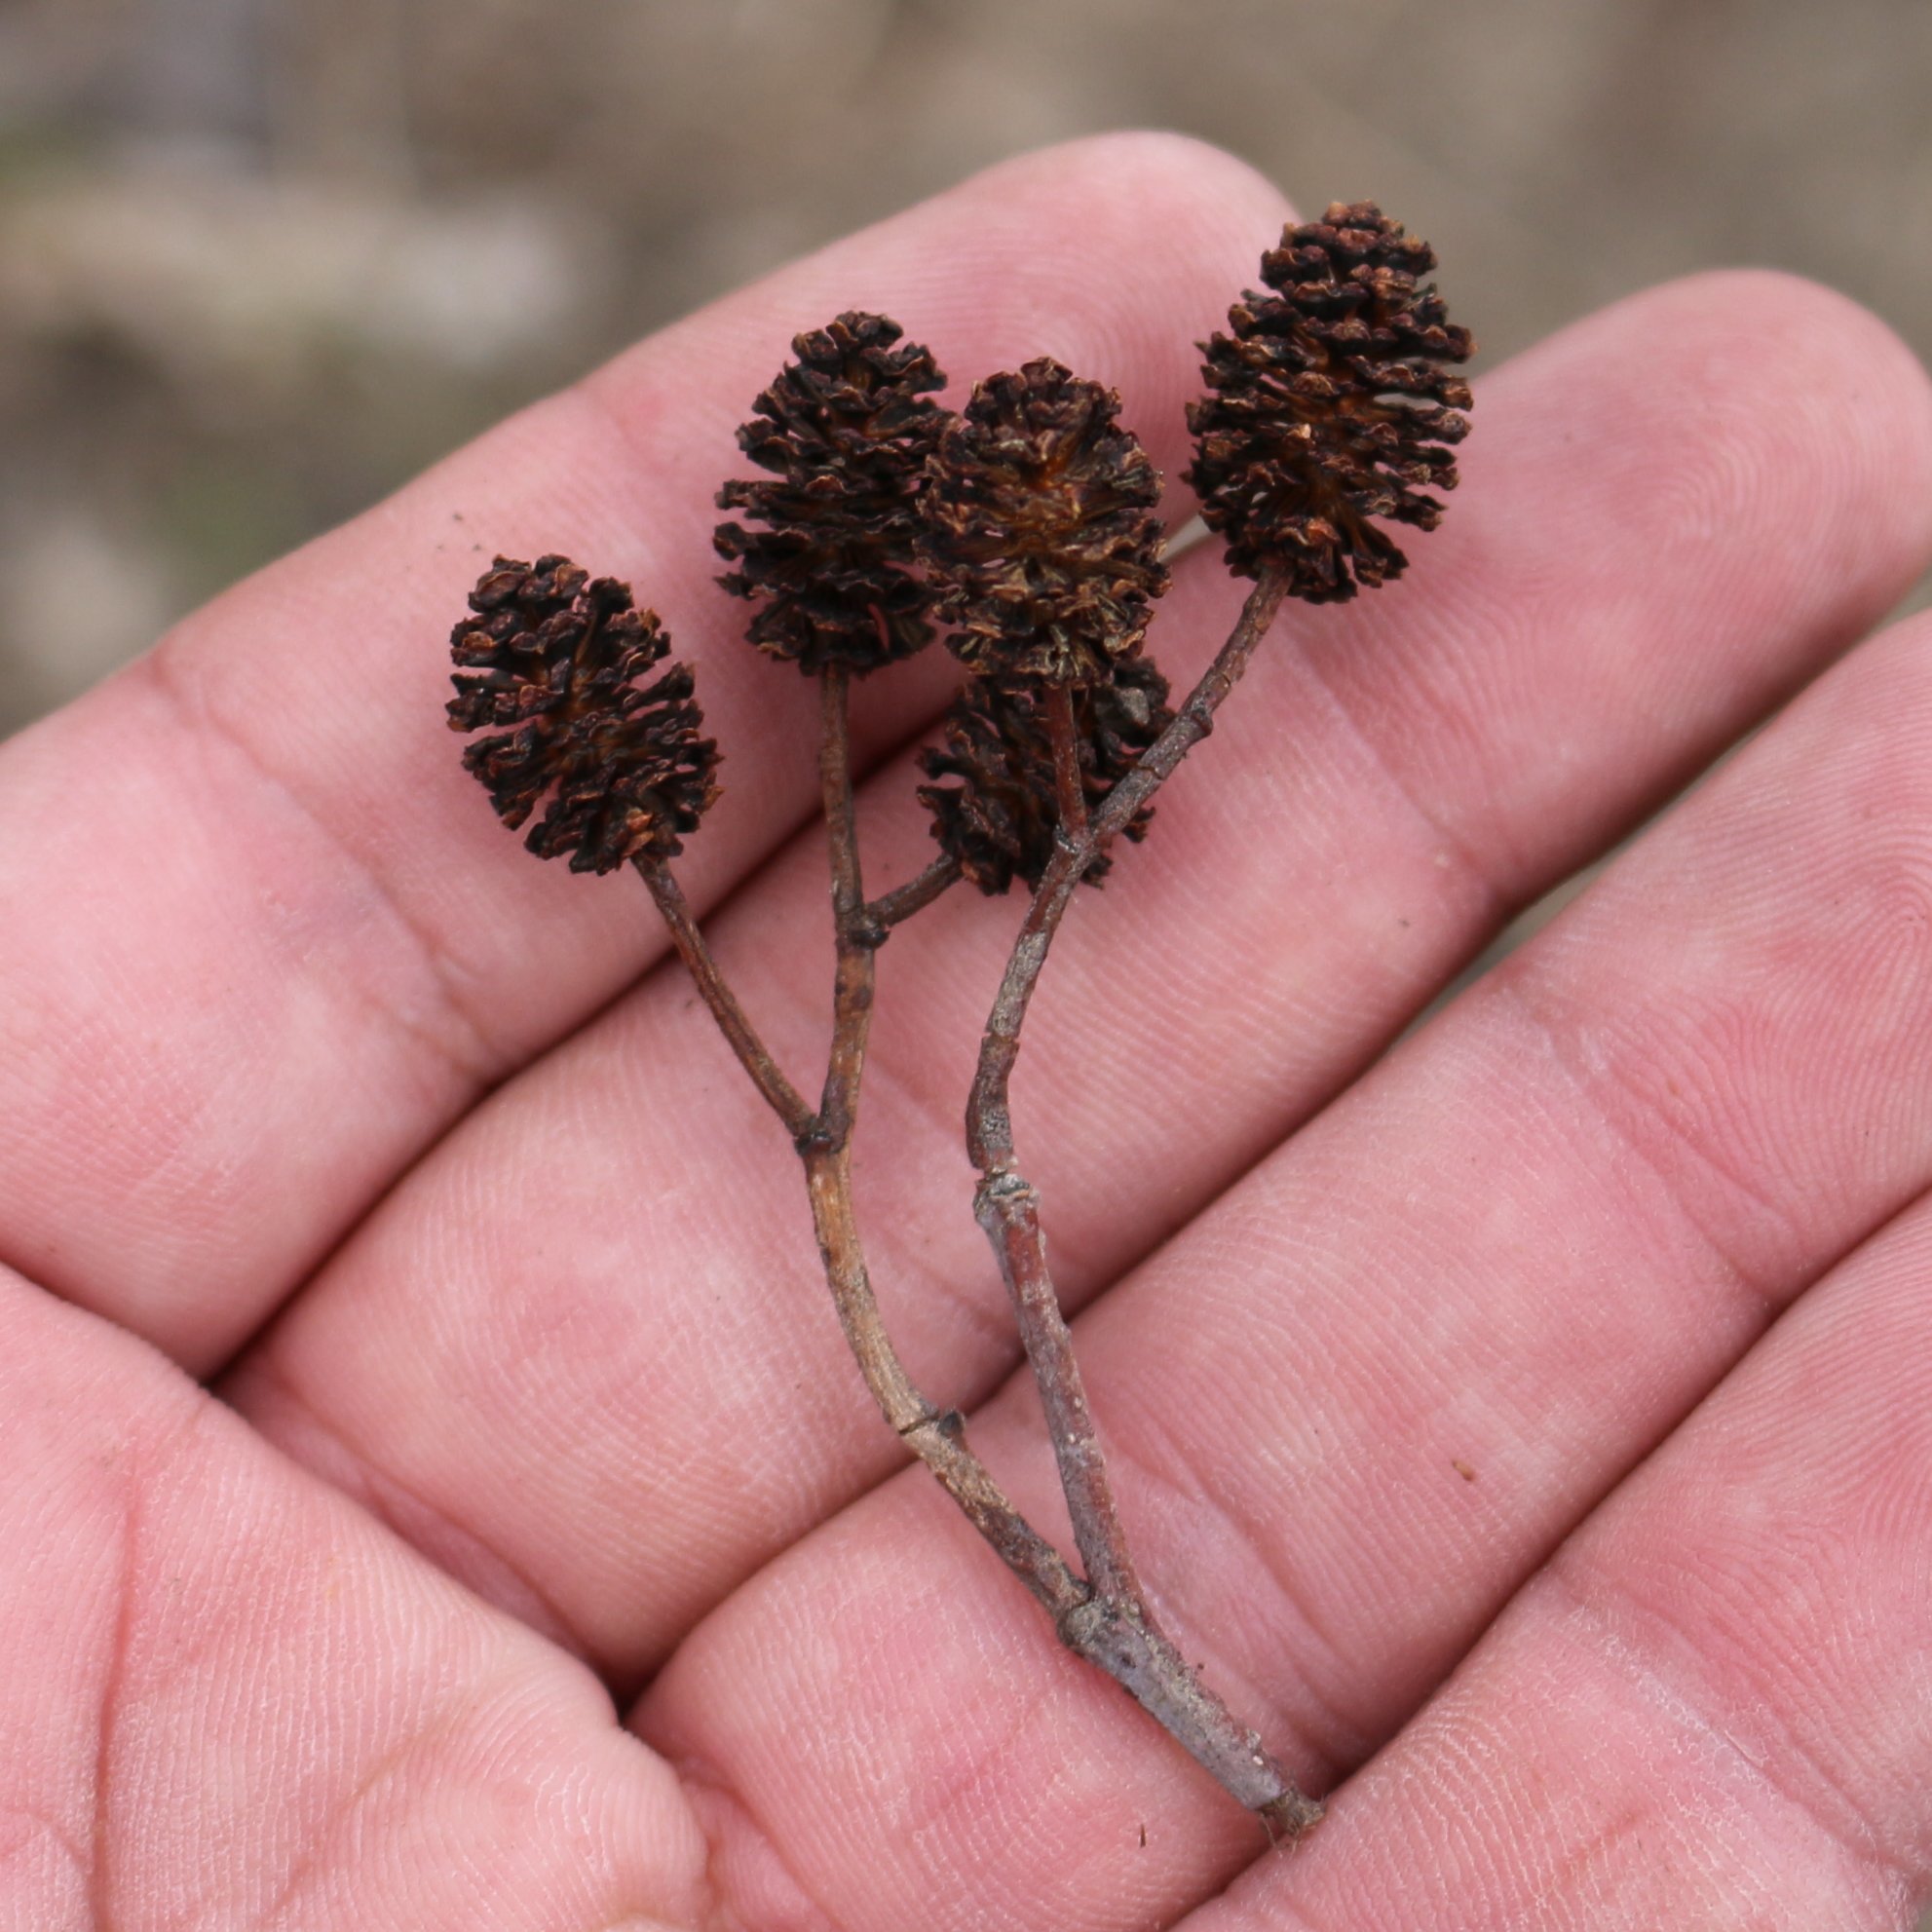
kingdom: Plantae
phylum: Tracheophyta
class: Magnoliopsida
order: Fagales
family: Betulaceae
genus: Alnus
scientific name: Alnus glutinosa
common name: Black alder
